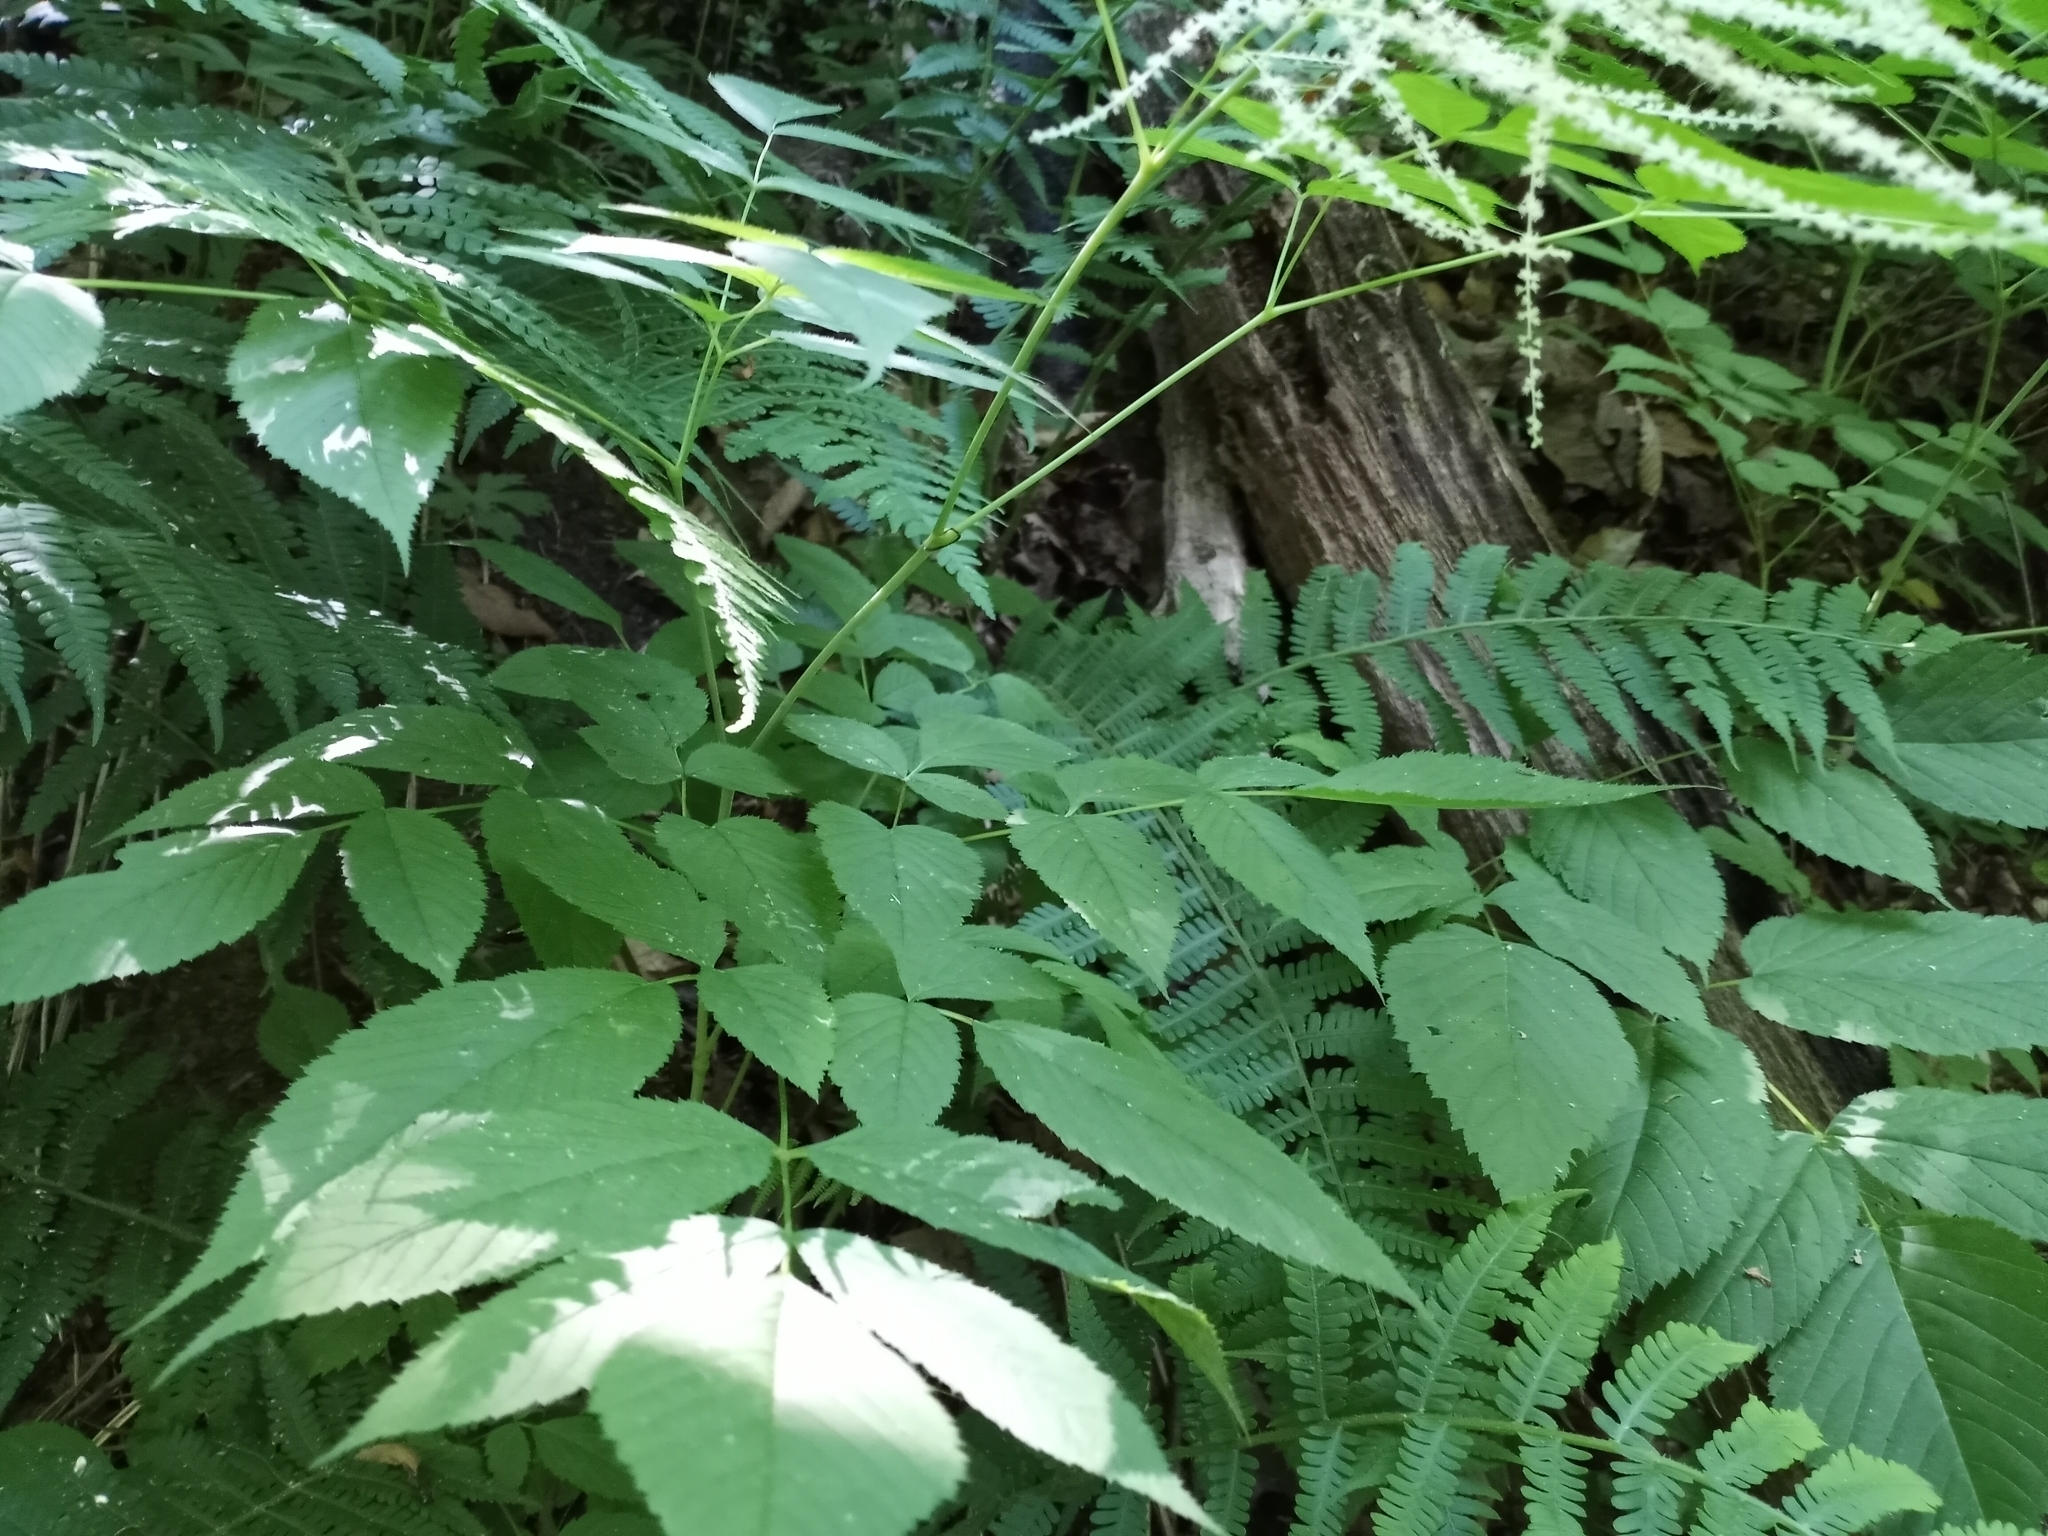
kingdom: Plantae
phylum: Tracheophyta
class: Magnoliopsida
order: Rosales
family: Rosaceae
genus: Aruncus
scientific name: Aruncus dioicus
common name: Buck's-beard
